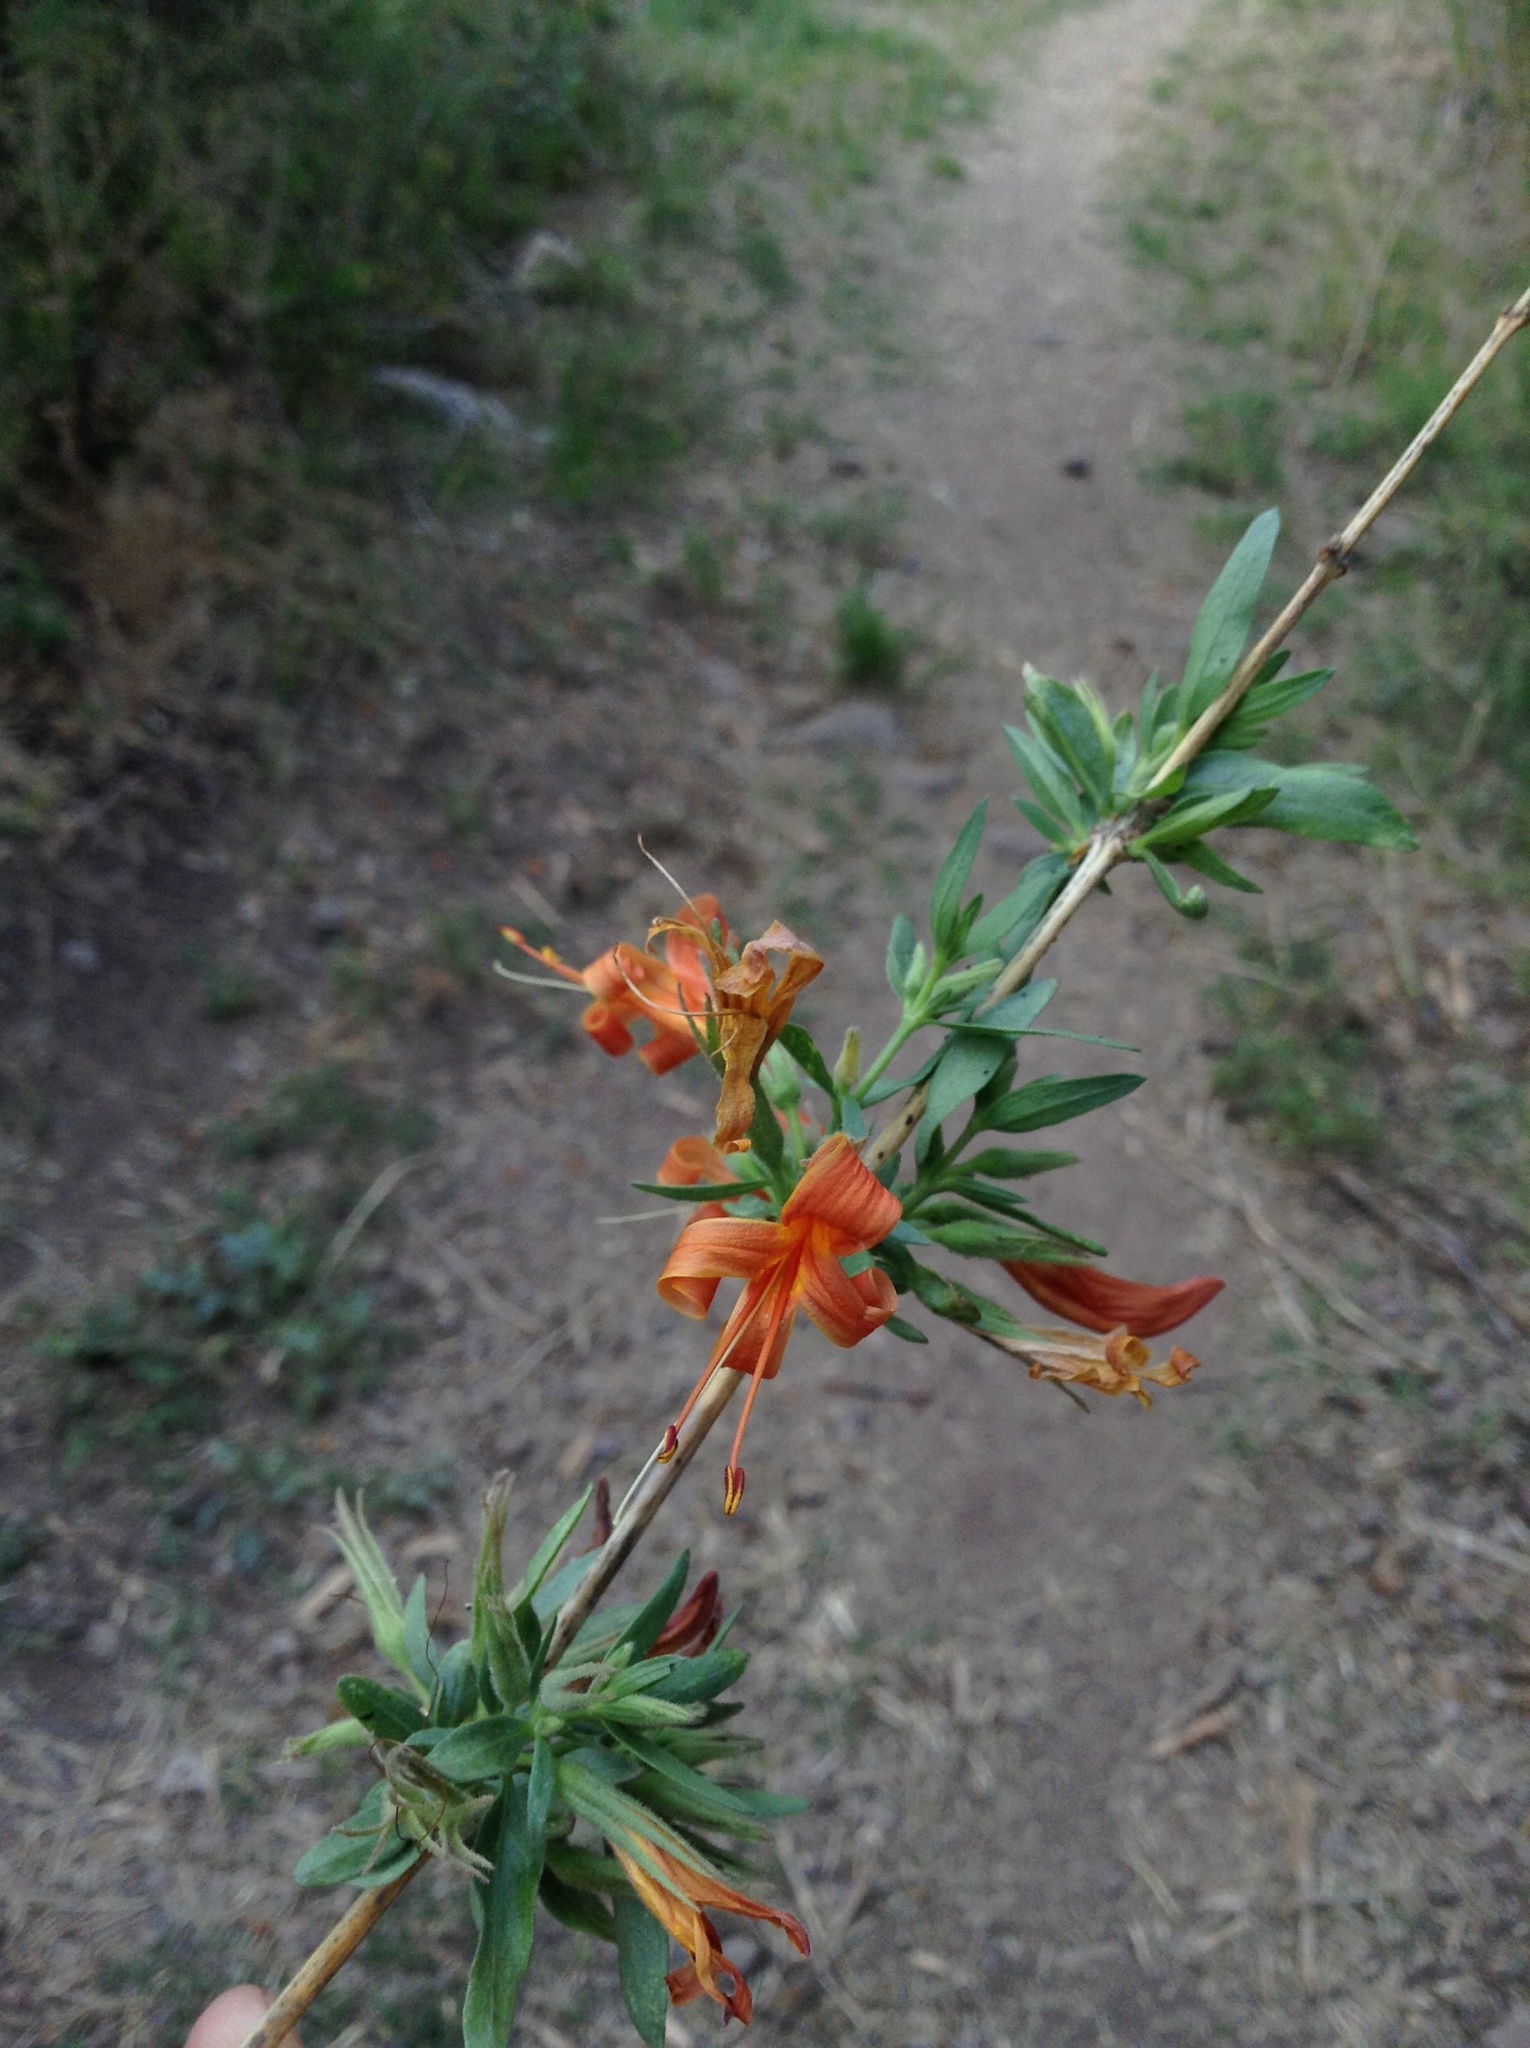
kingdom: Plantae
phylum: Tracheophyta
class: Magnoliopsida
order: Lamiales
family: Acanthaceae
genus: Anisacanthus
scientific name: Anisacanthus thurberi
